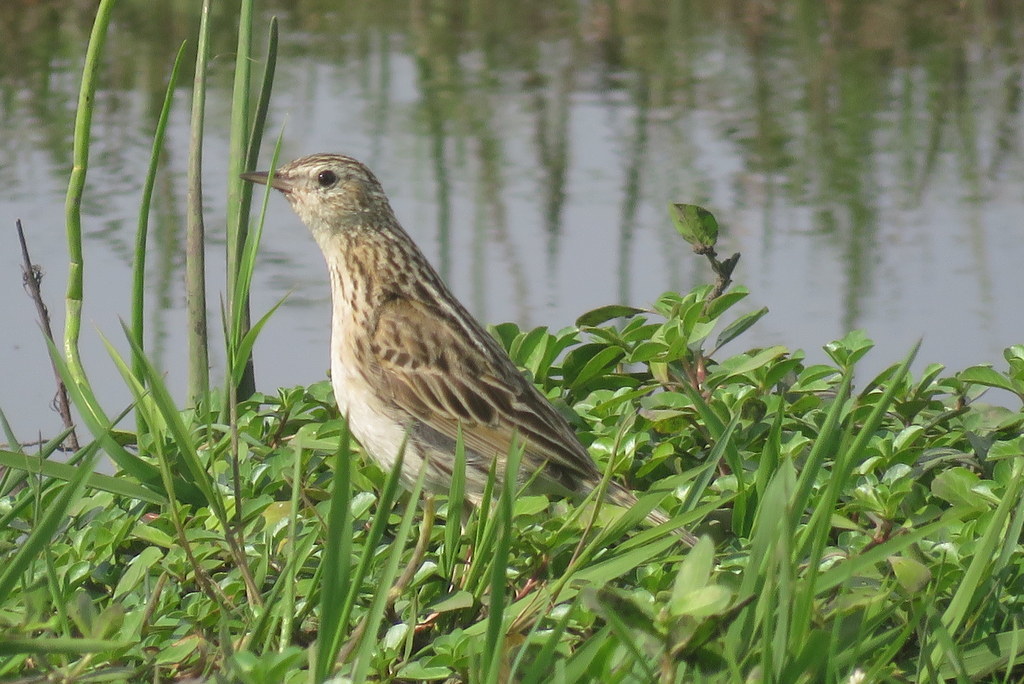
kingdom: Animalia
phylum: Chordata
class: Aves
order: Passeriformes
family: Motacillidae
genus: Anthus
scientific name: Anthus correndera
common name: Correndera pipit
